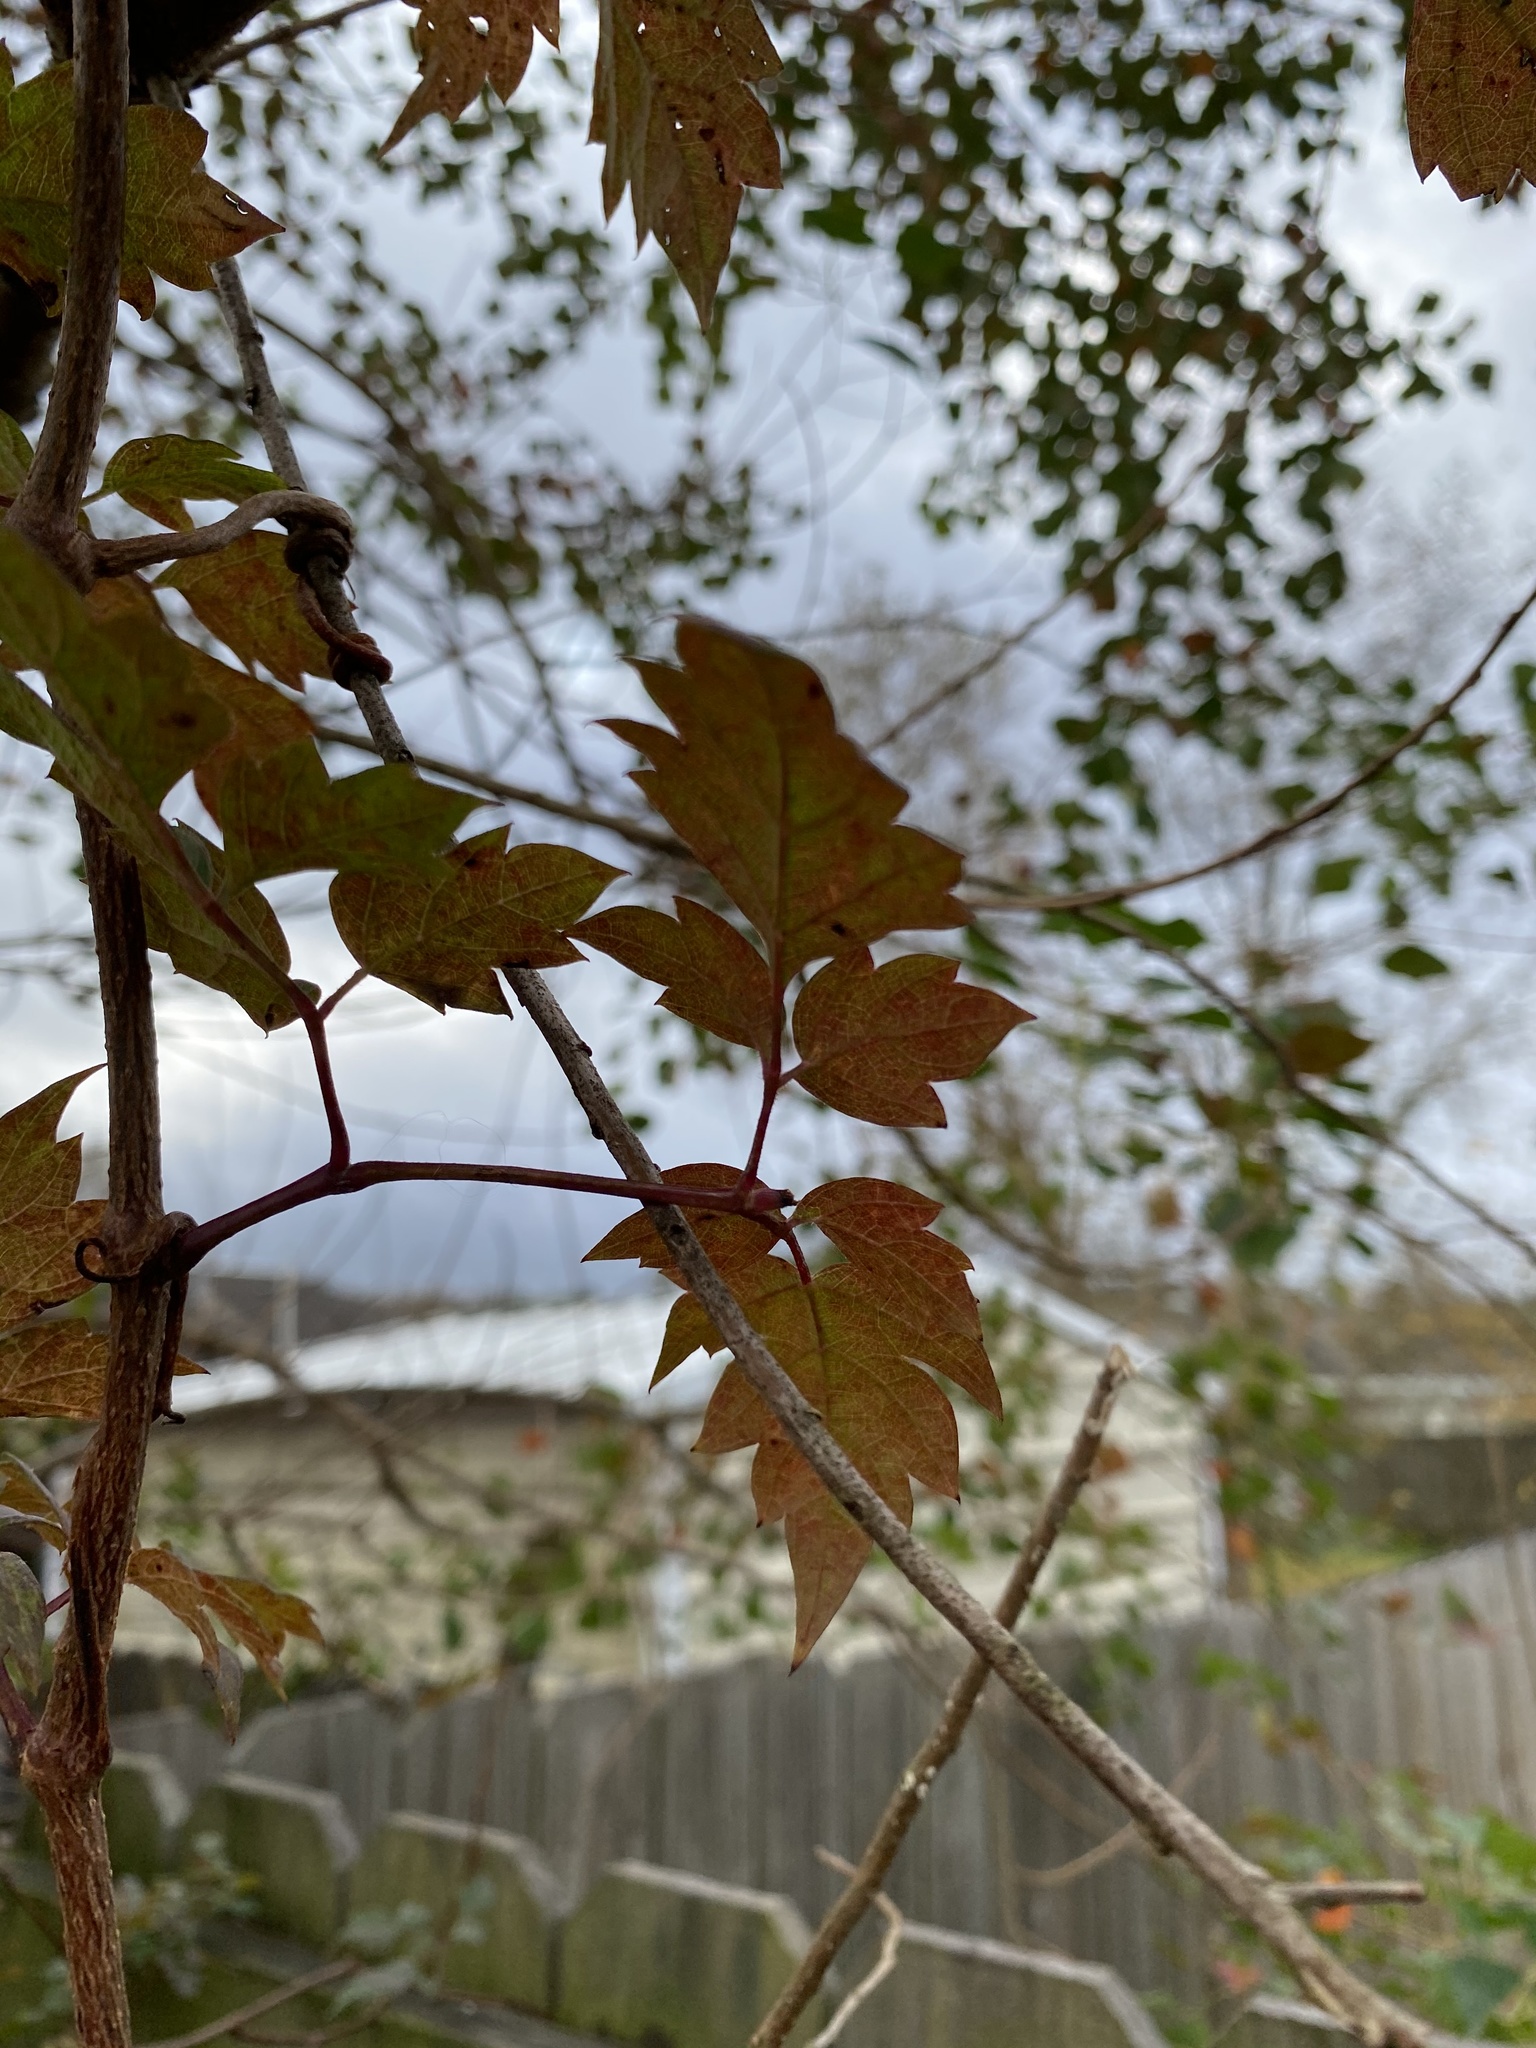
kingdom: Plantae
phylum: Tracheophyta
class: Magnoliopsida
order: Vitales
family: Vitaceae
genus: Nekemias
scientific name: Nekemias arborea
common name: Peppervine
